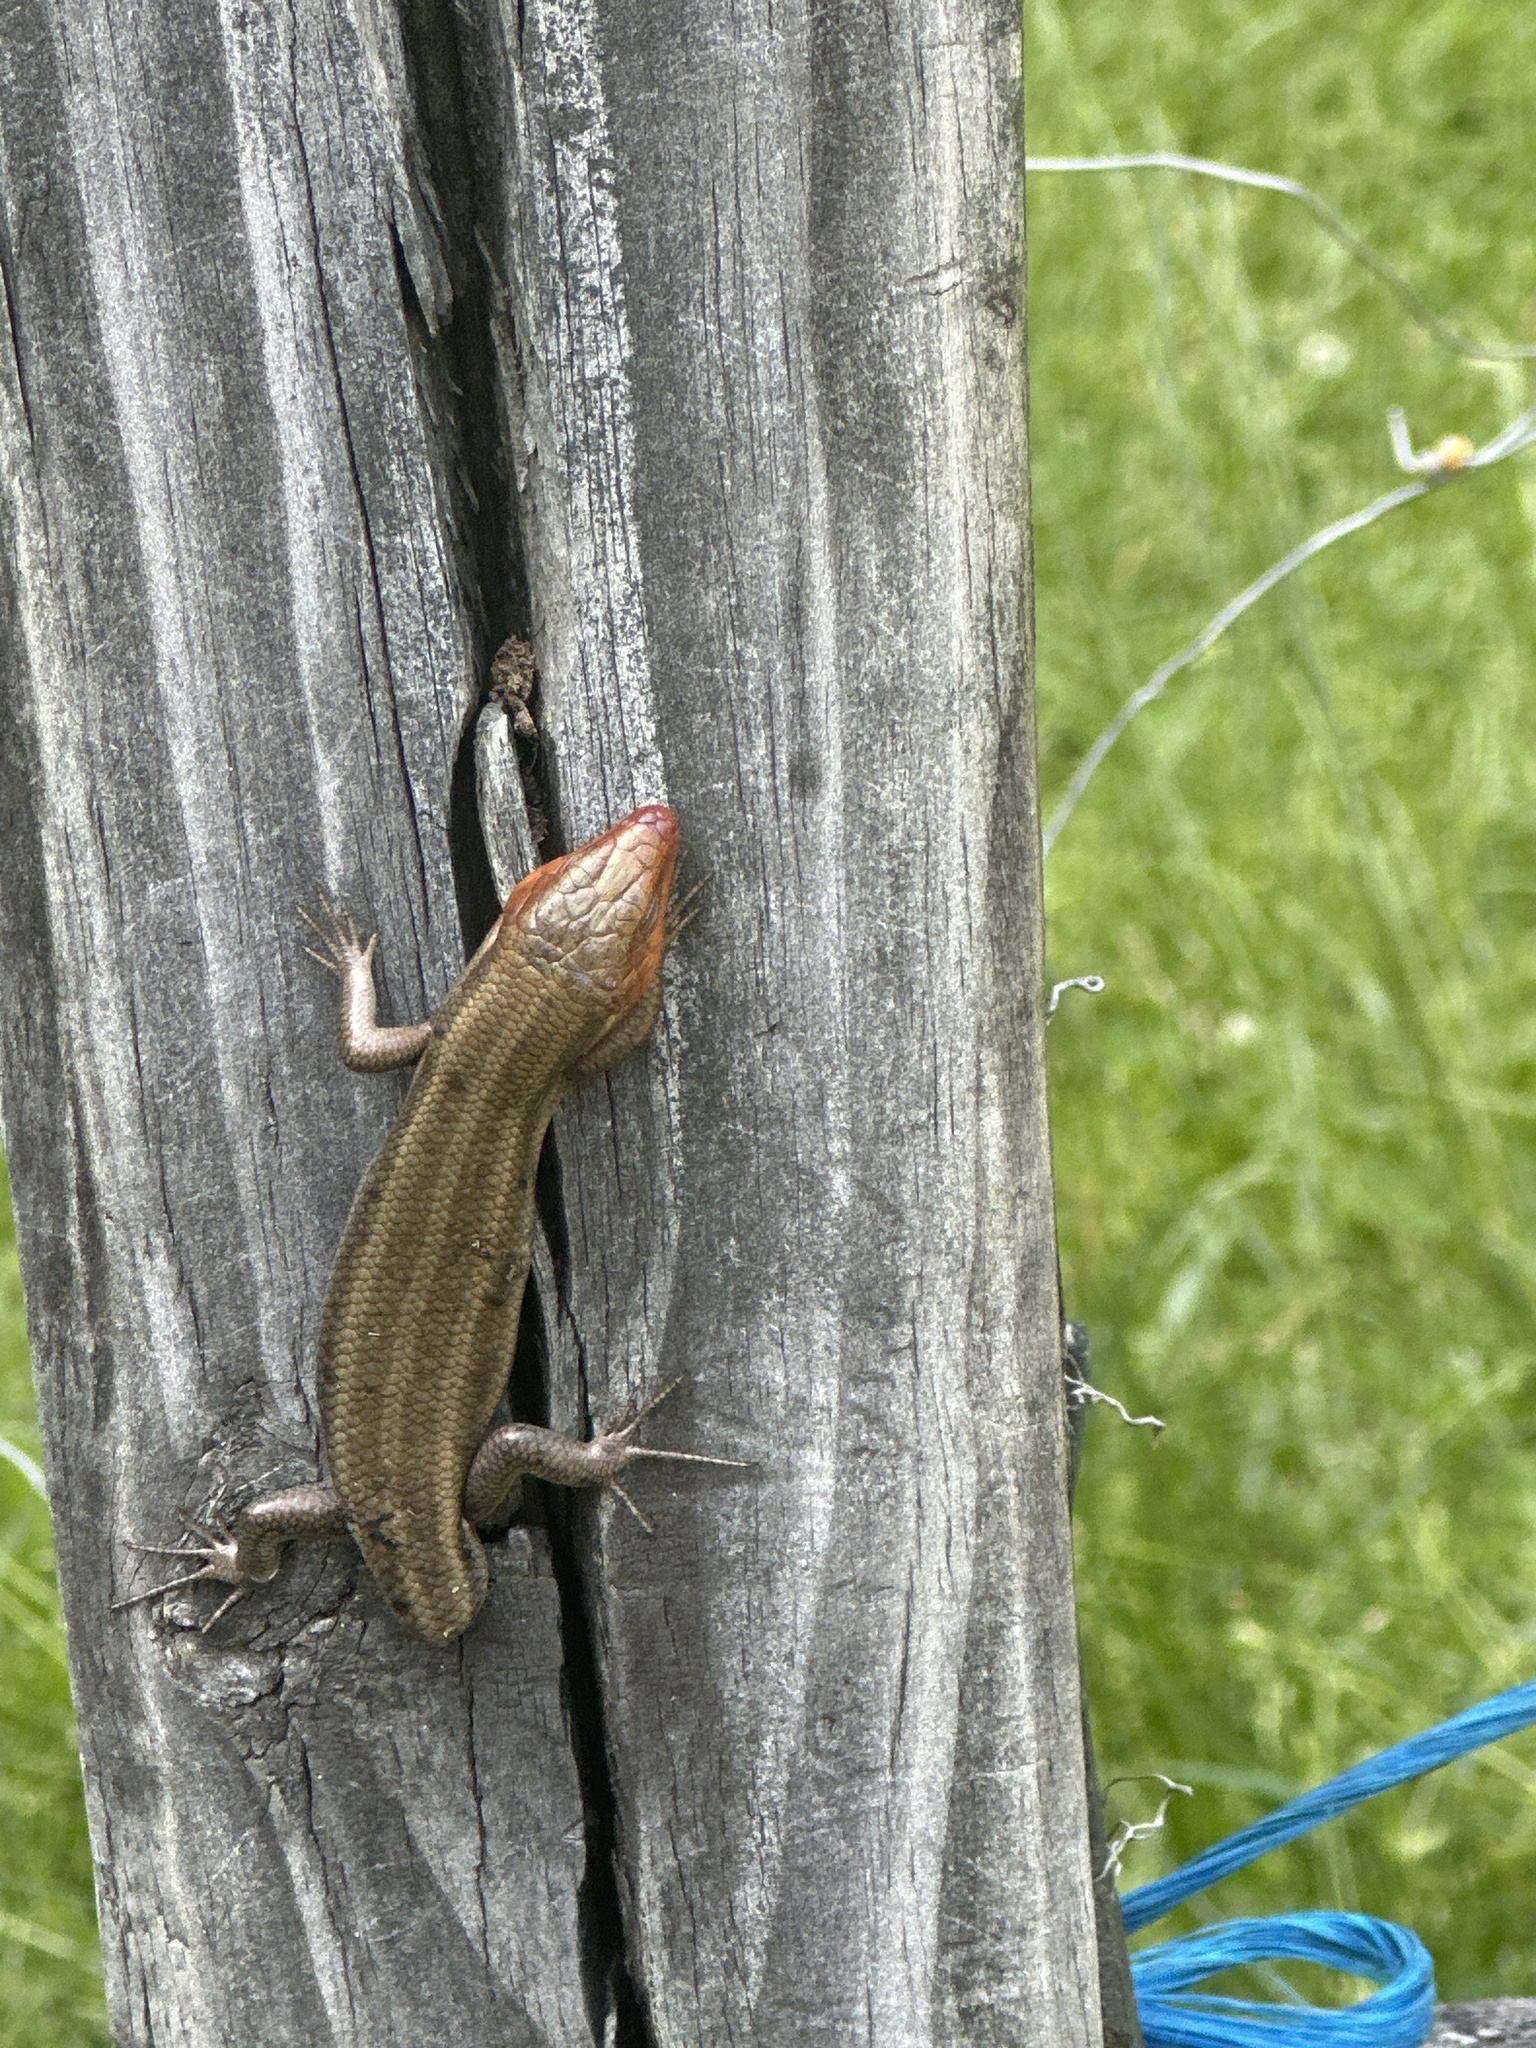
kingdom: Animalia
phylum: Chordata
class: Squamata
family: Scincidae
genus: Plestiodon
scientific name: Plestiodon fasciatus
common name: Five-lined skink
